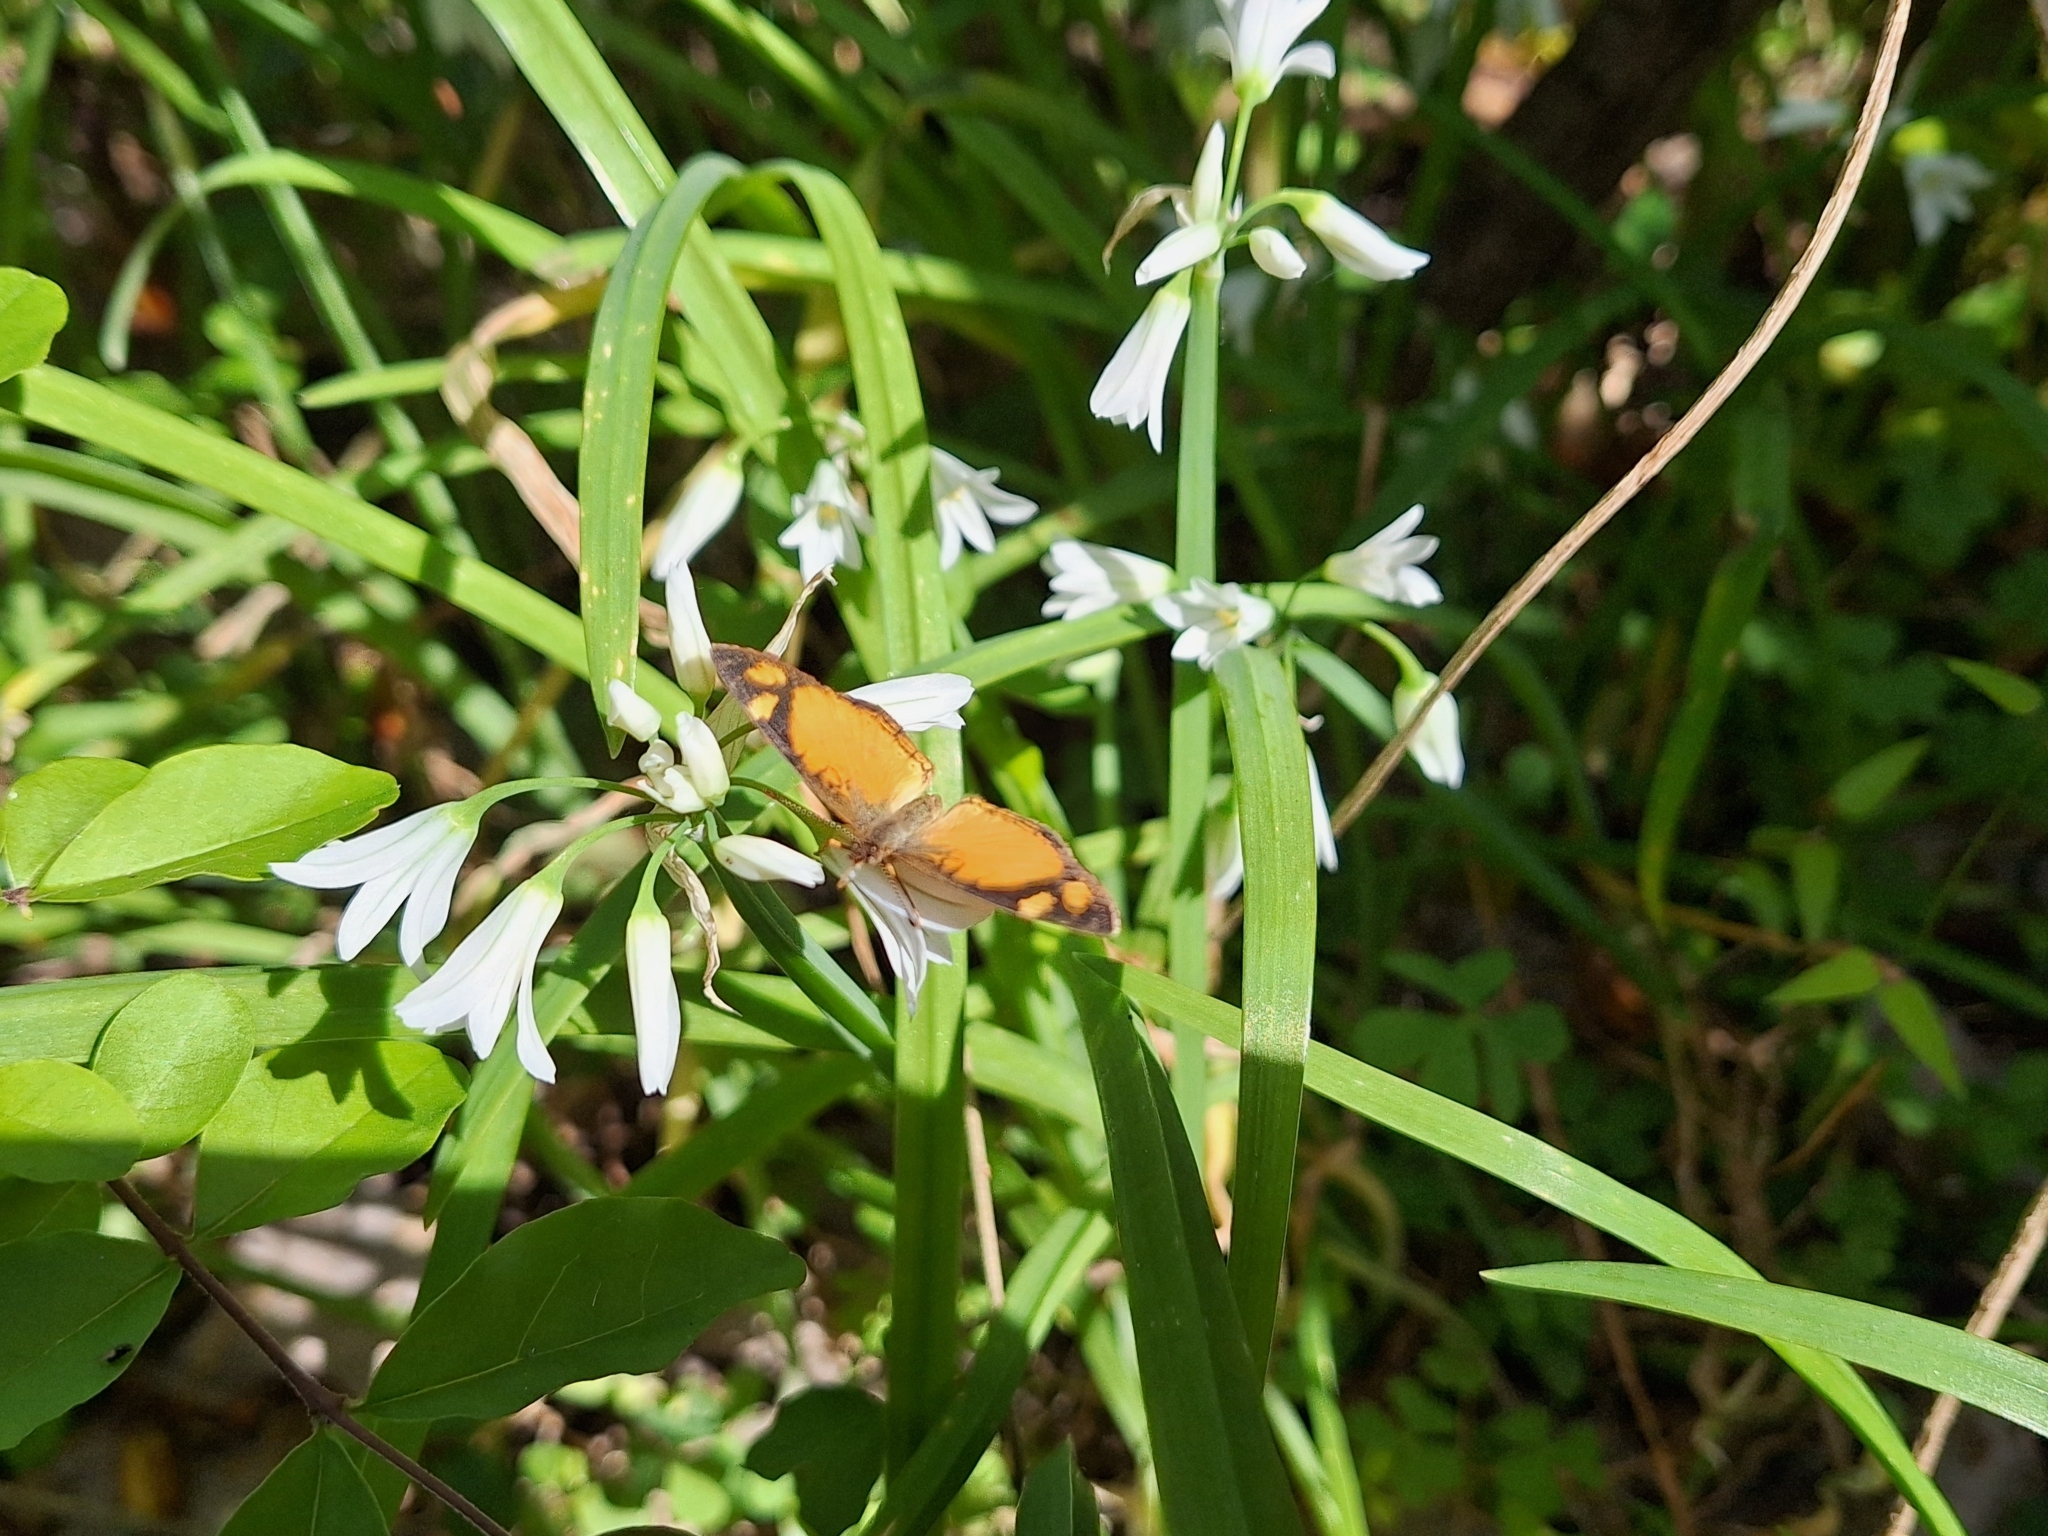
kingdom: Animalia
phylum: Arthropoda
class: Insecta
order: Lepidoptera
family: Nymphalidae
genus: Tegosa
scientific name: Tegosa claudina
